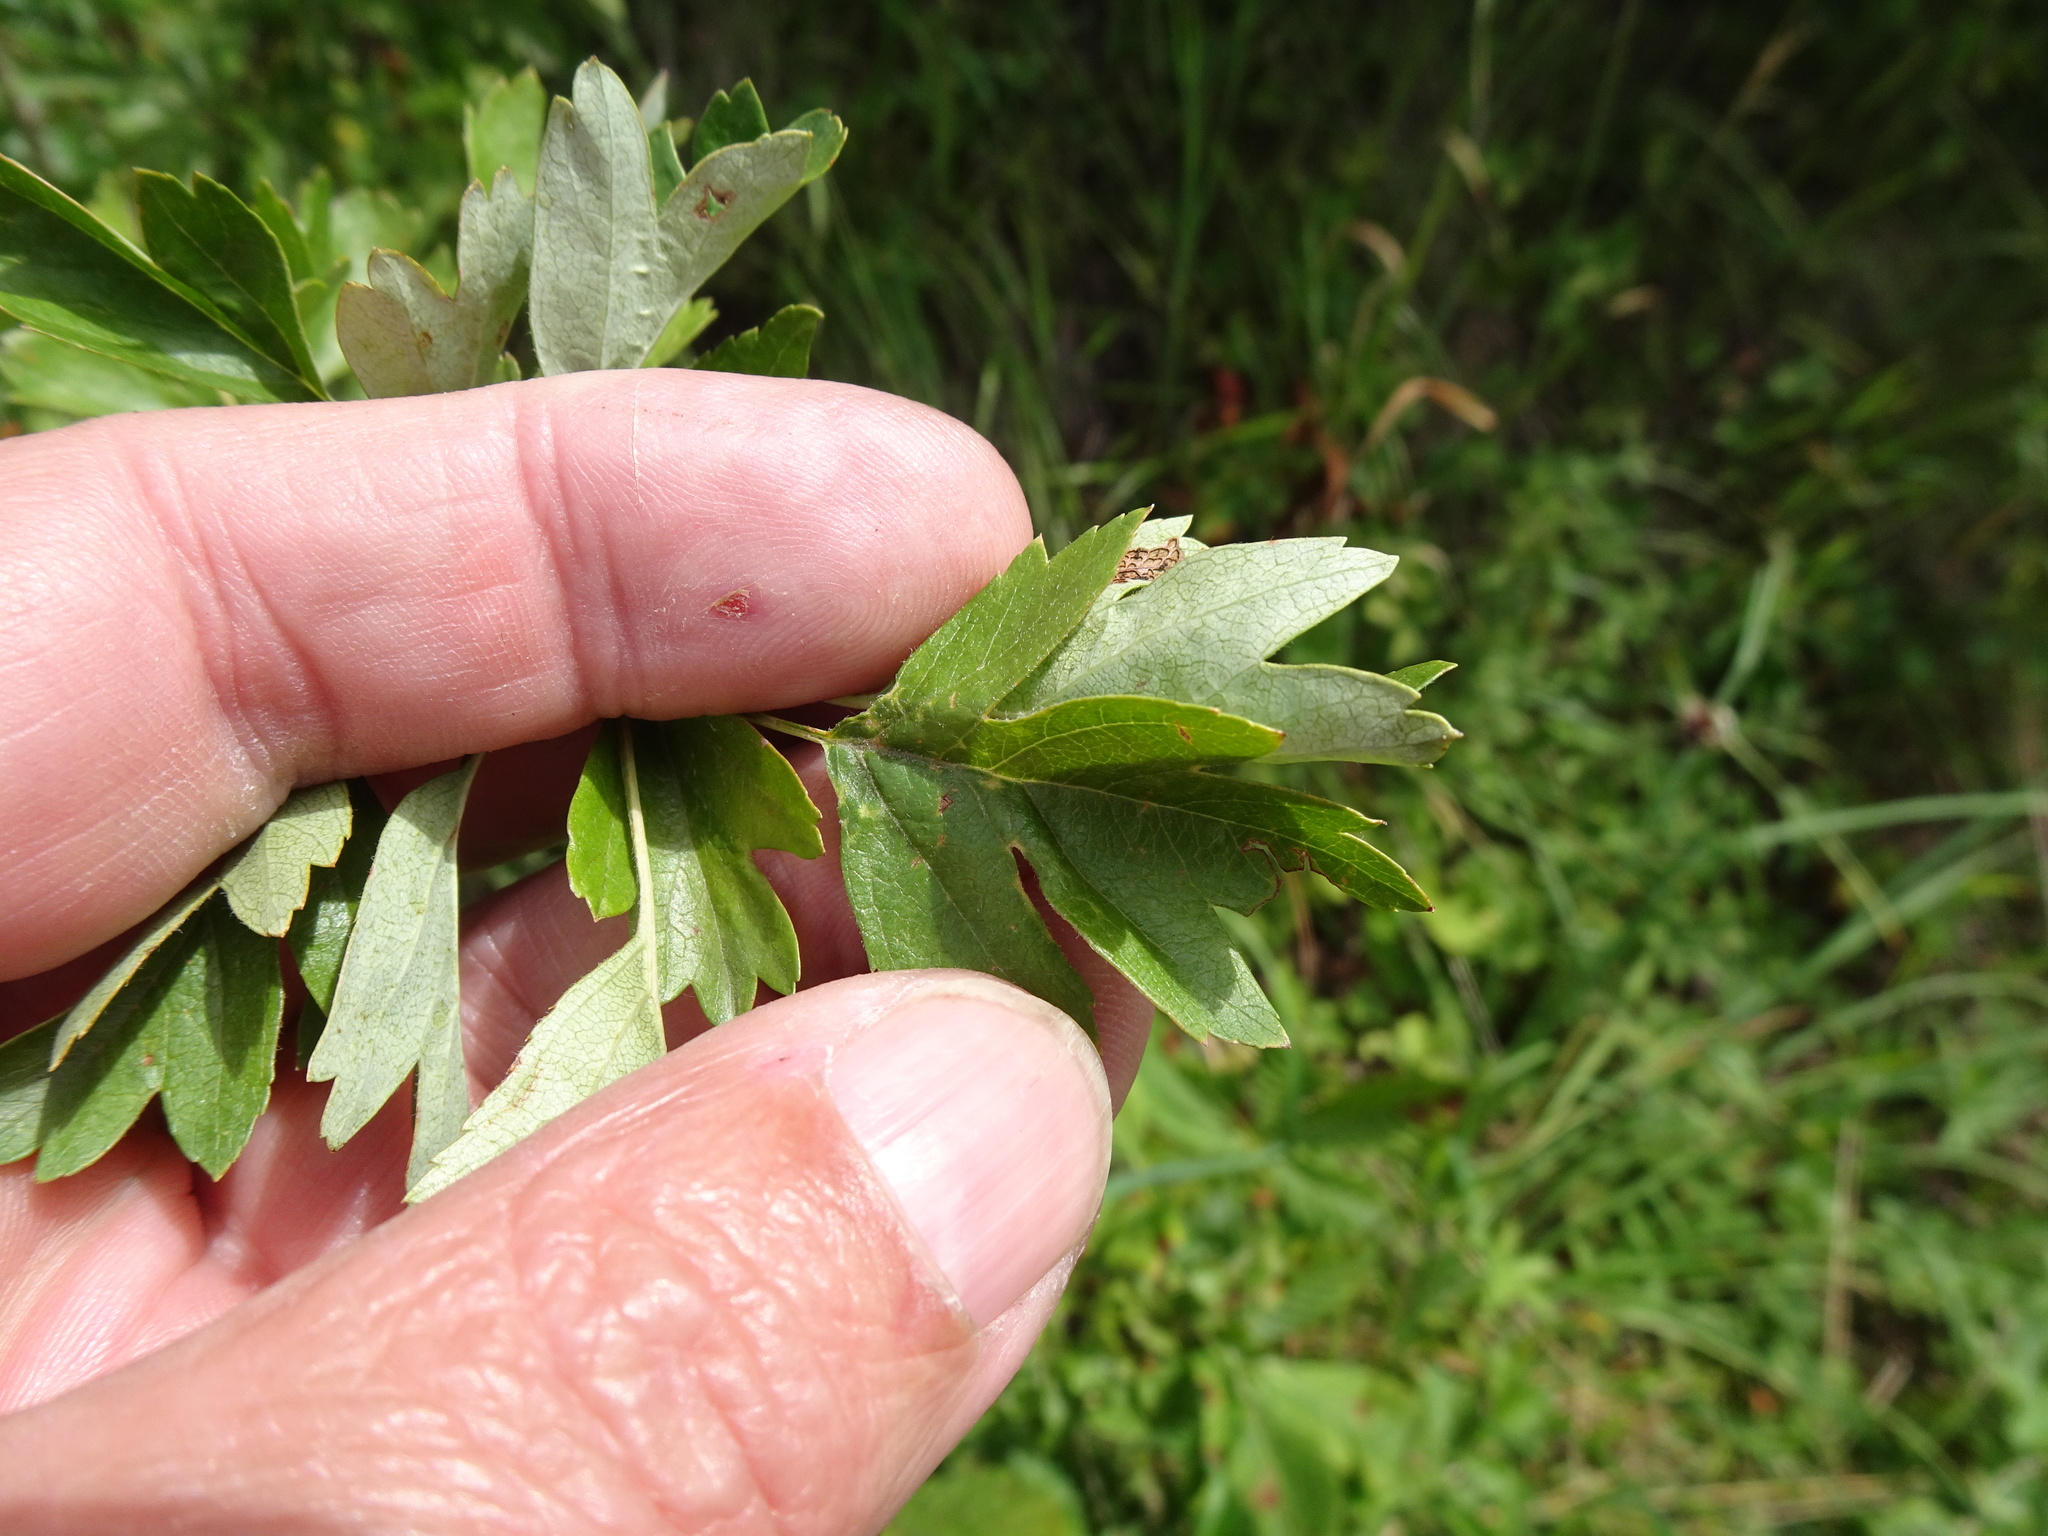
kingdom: Plantae
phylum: Tracheophyta
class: Magnoliopsida
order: Rosales
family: Rosaceae
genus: Crataegus
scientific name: Crataegus monogyna
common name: Hawthorn
